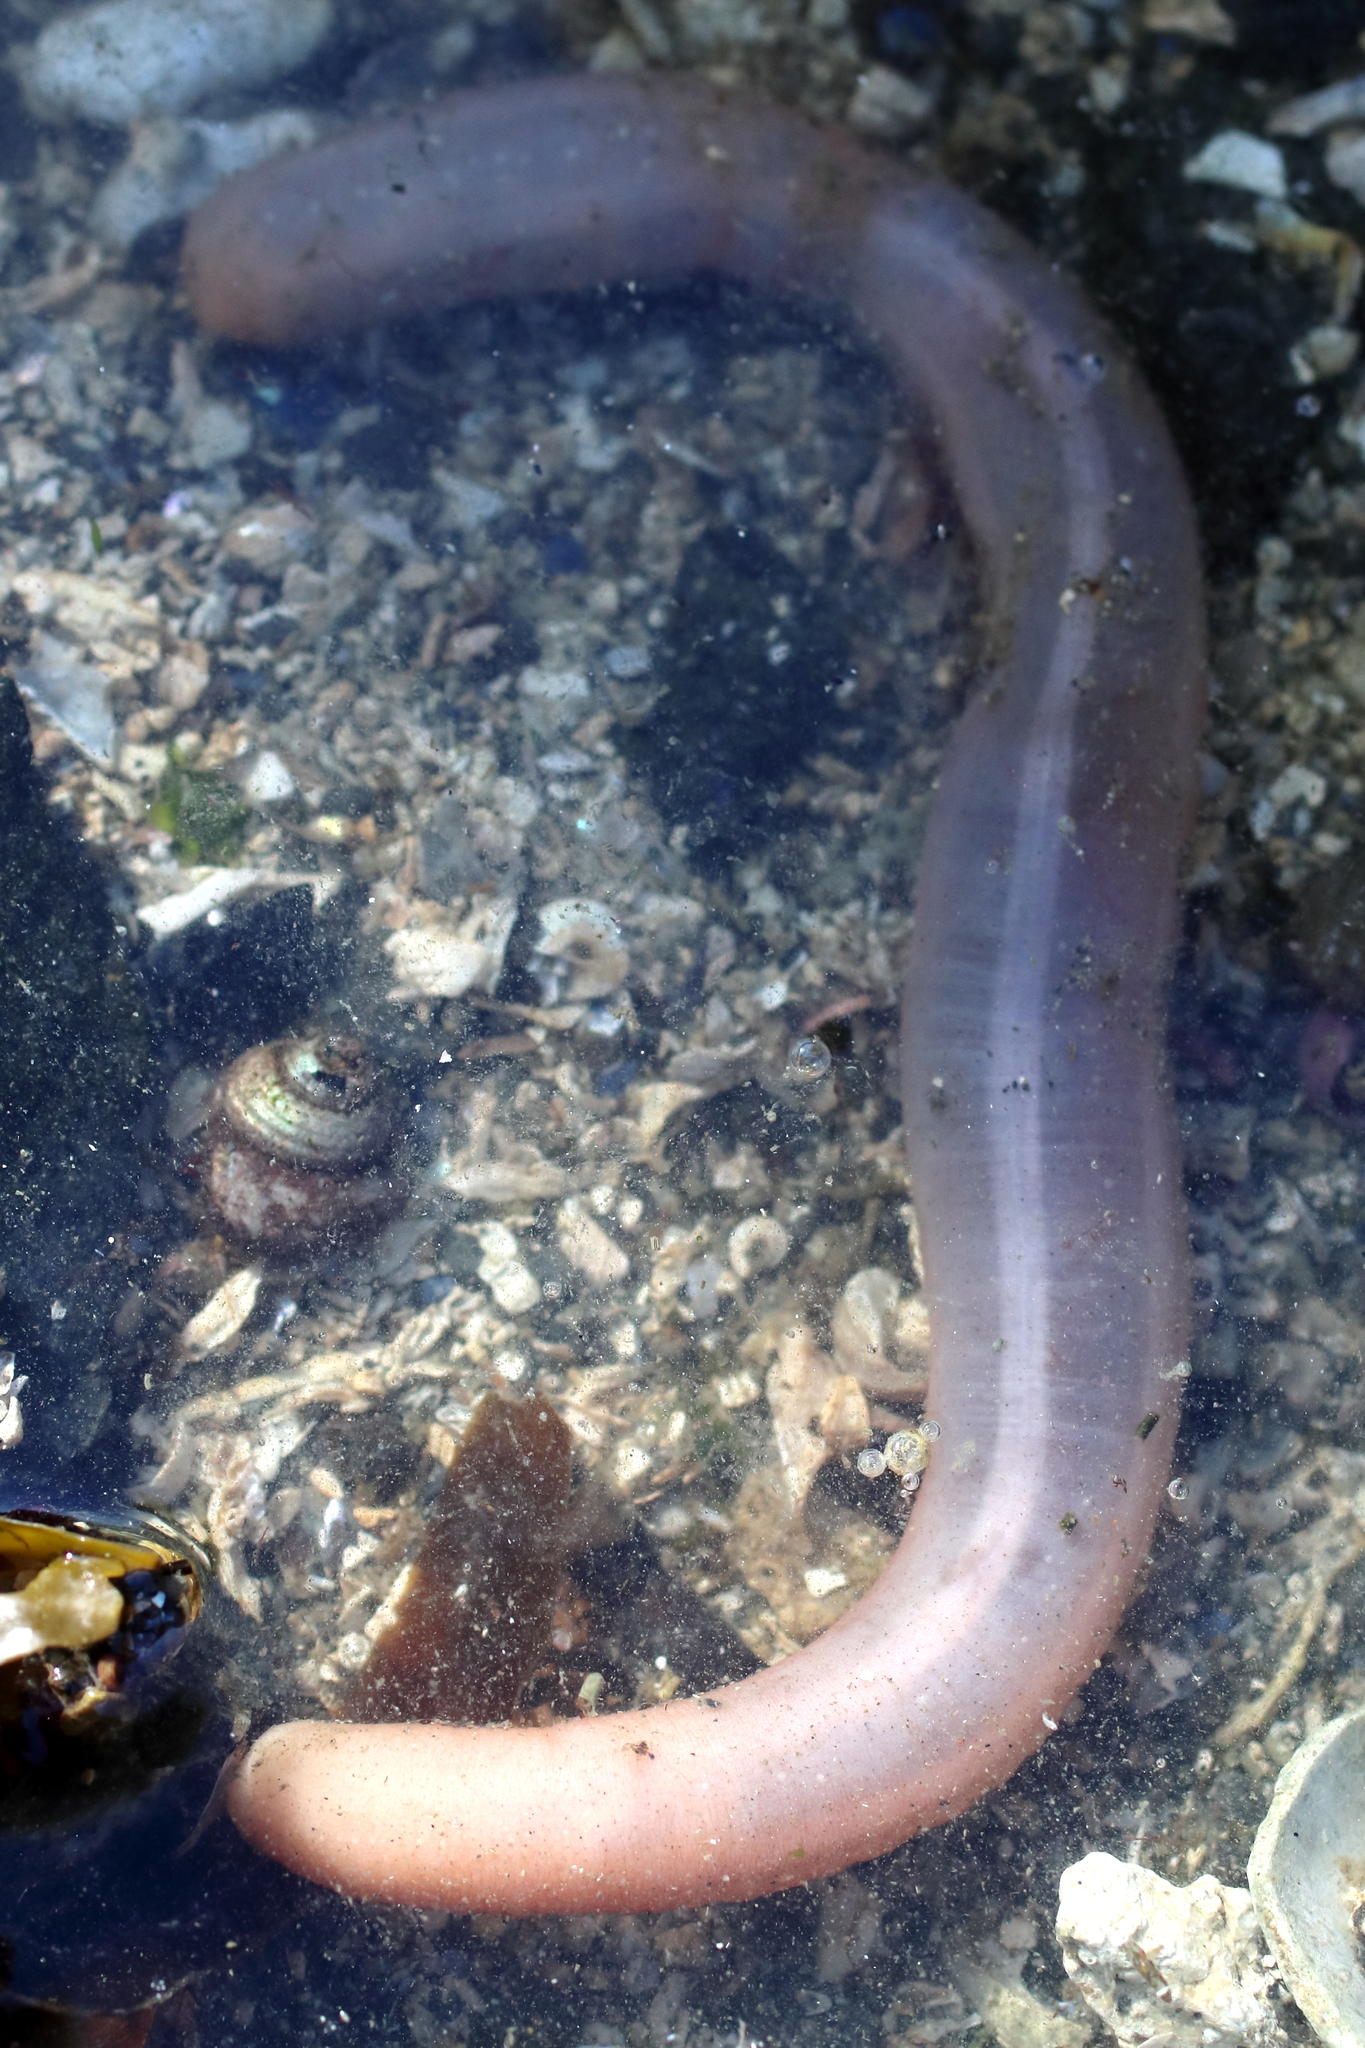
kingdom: Animalia
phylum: Echinodermata
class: Holothuroidea
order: Apodida
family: Chiridotidae
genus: Chiridota
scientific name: Chiridota discolor
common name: Jellybean footless sea cucumber
